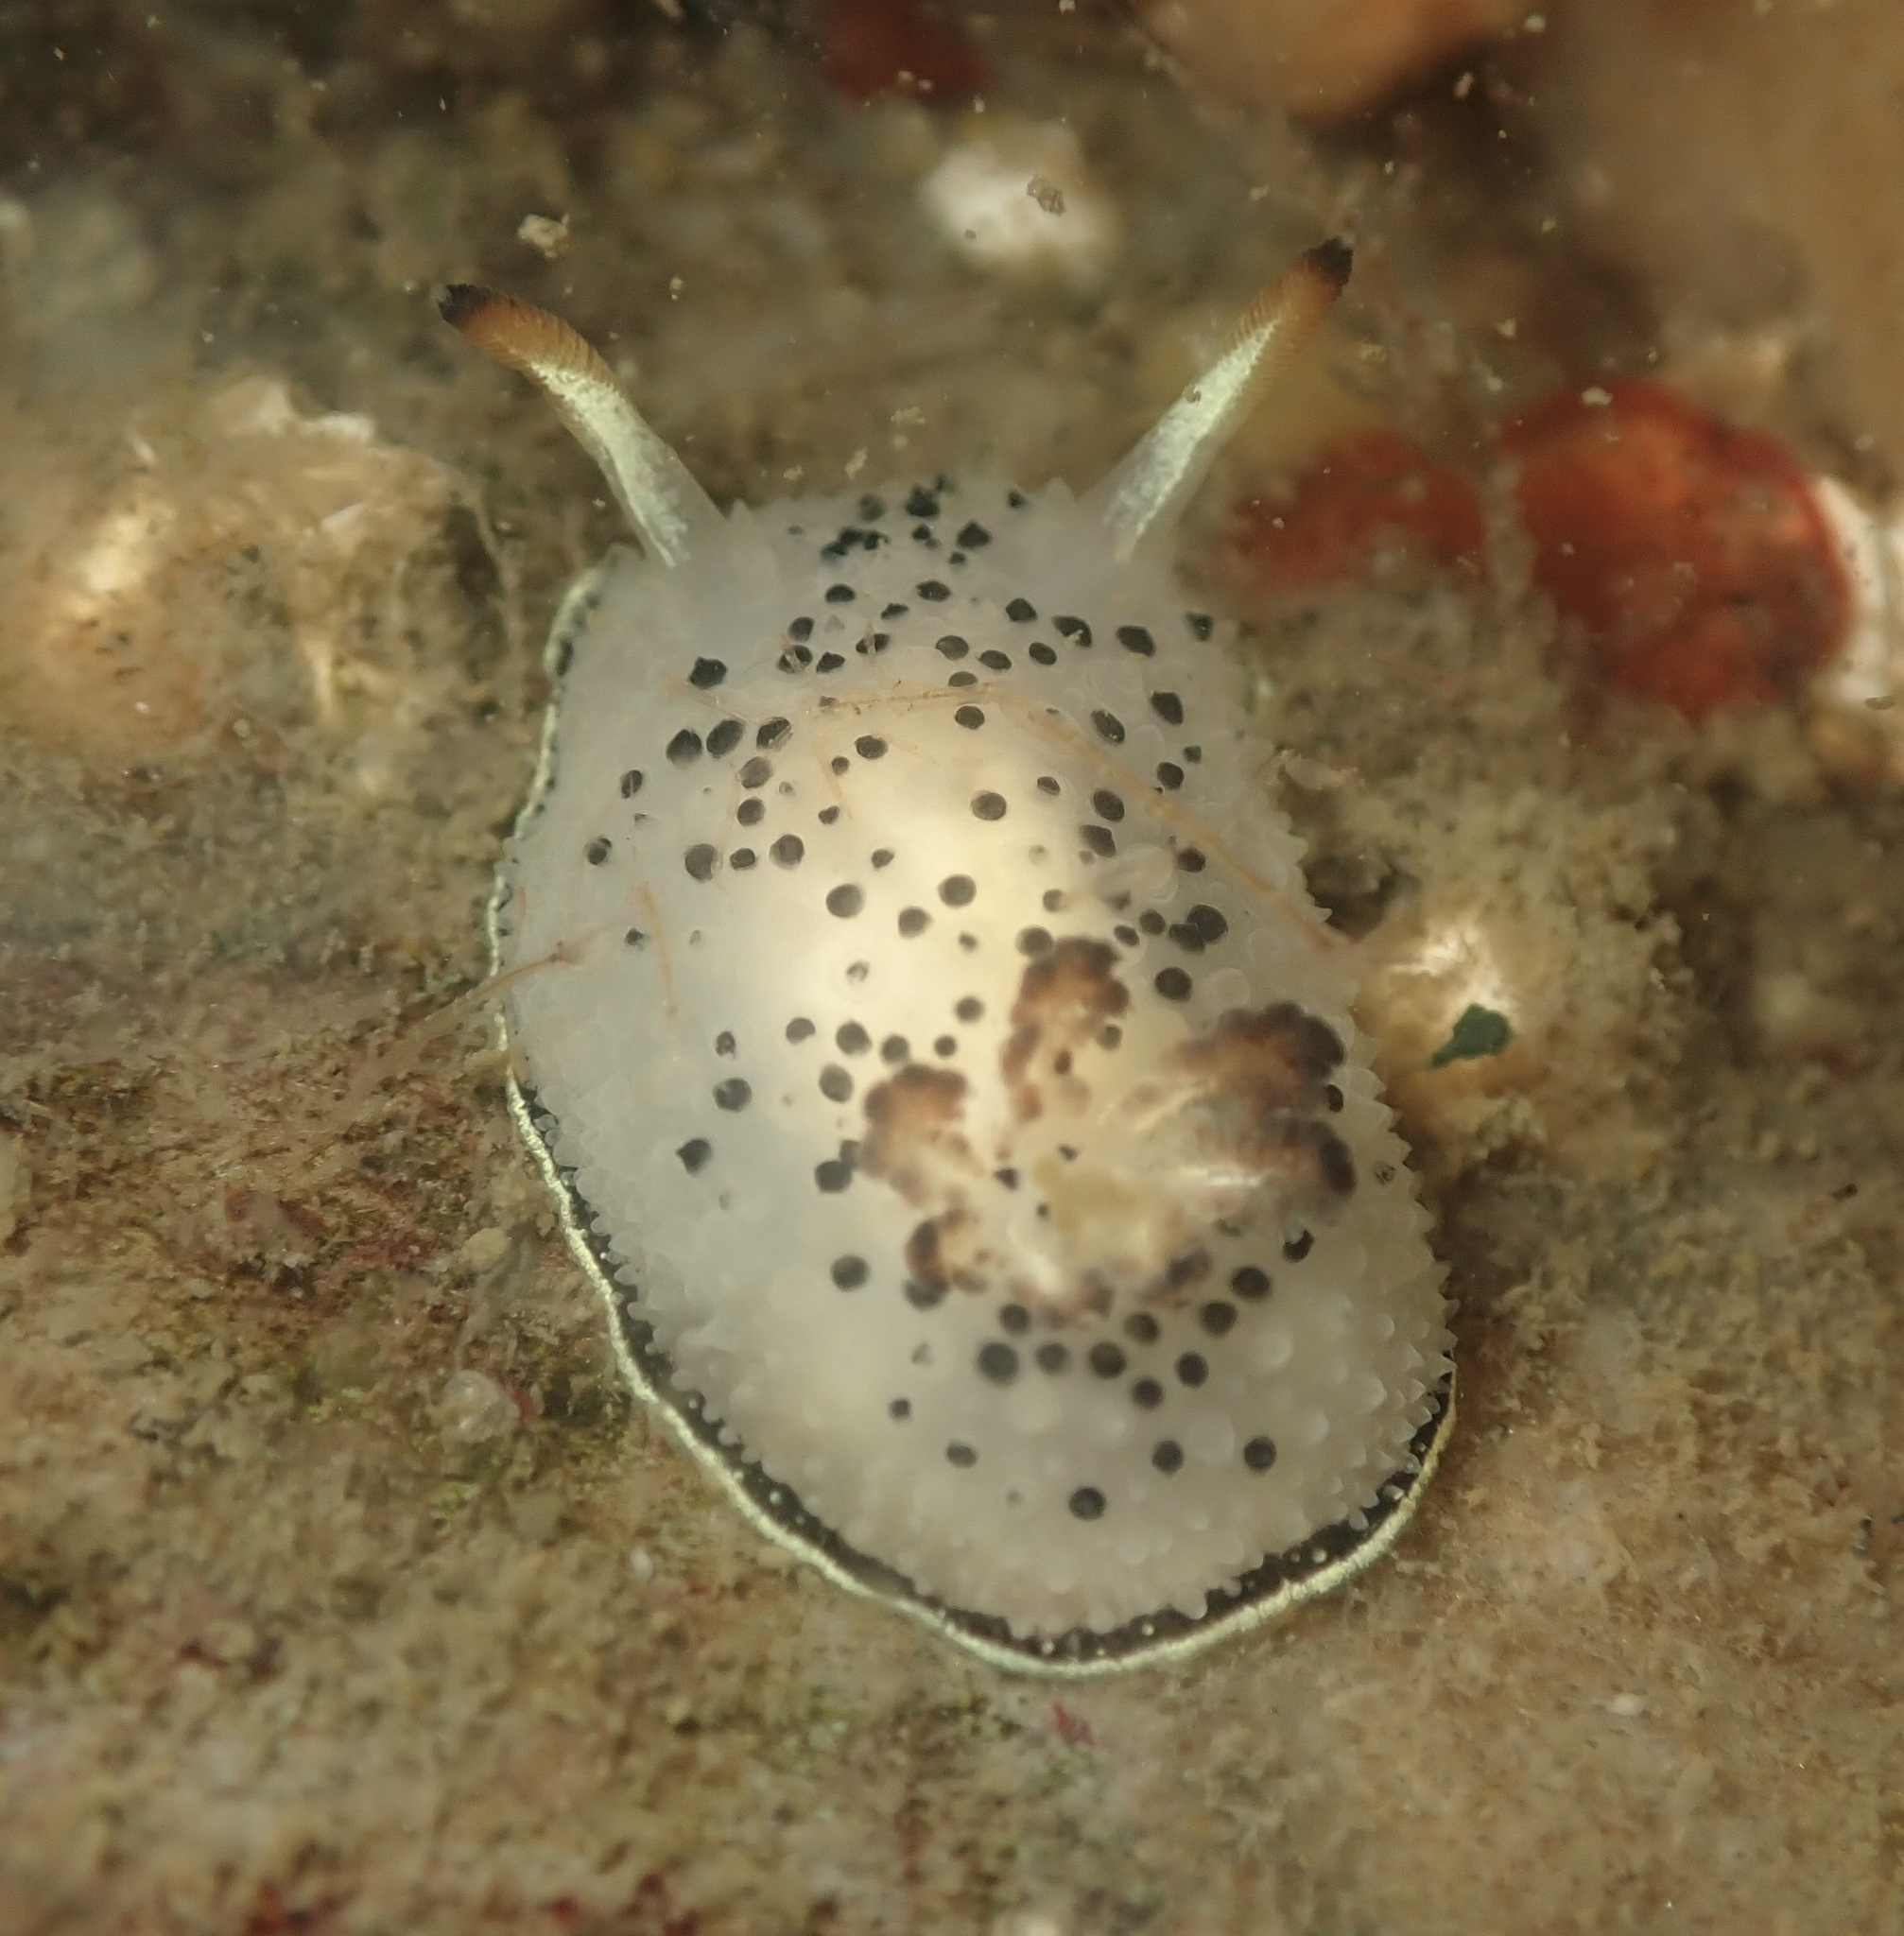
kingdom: Animalia
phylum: Mollusca
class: Gastropoda
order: Nudibranchia
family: Onchidorididae
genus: Acanthodoris
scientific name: Acanthodoris rhodoceras
